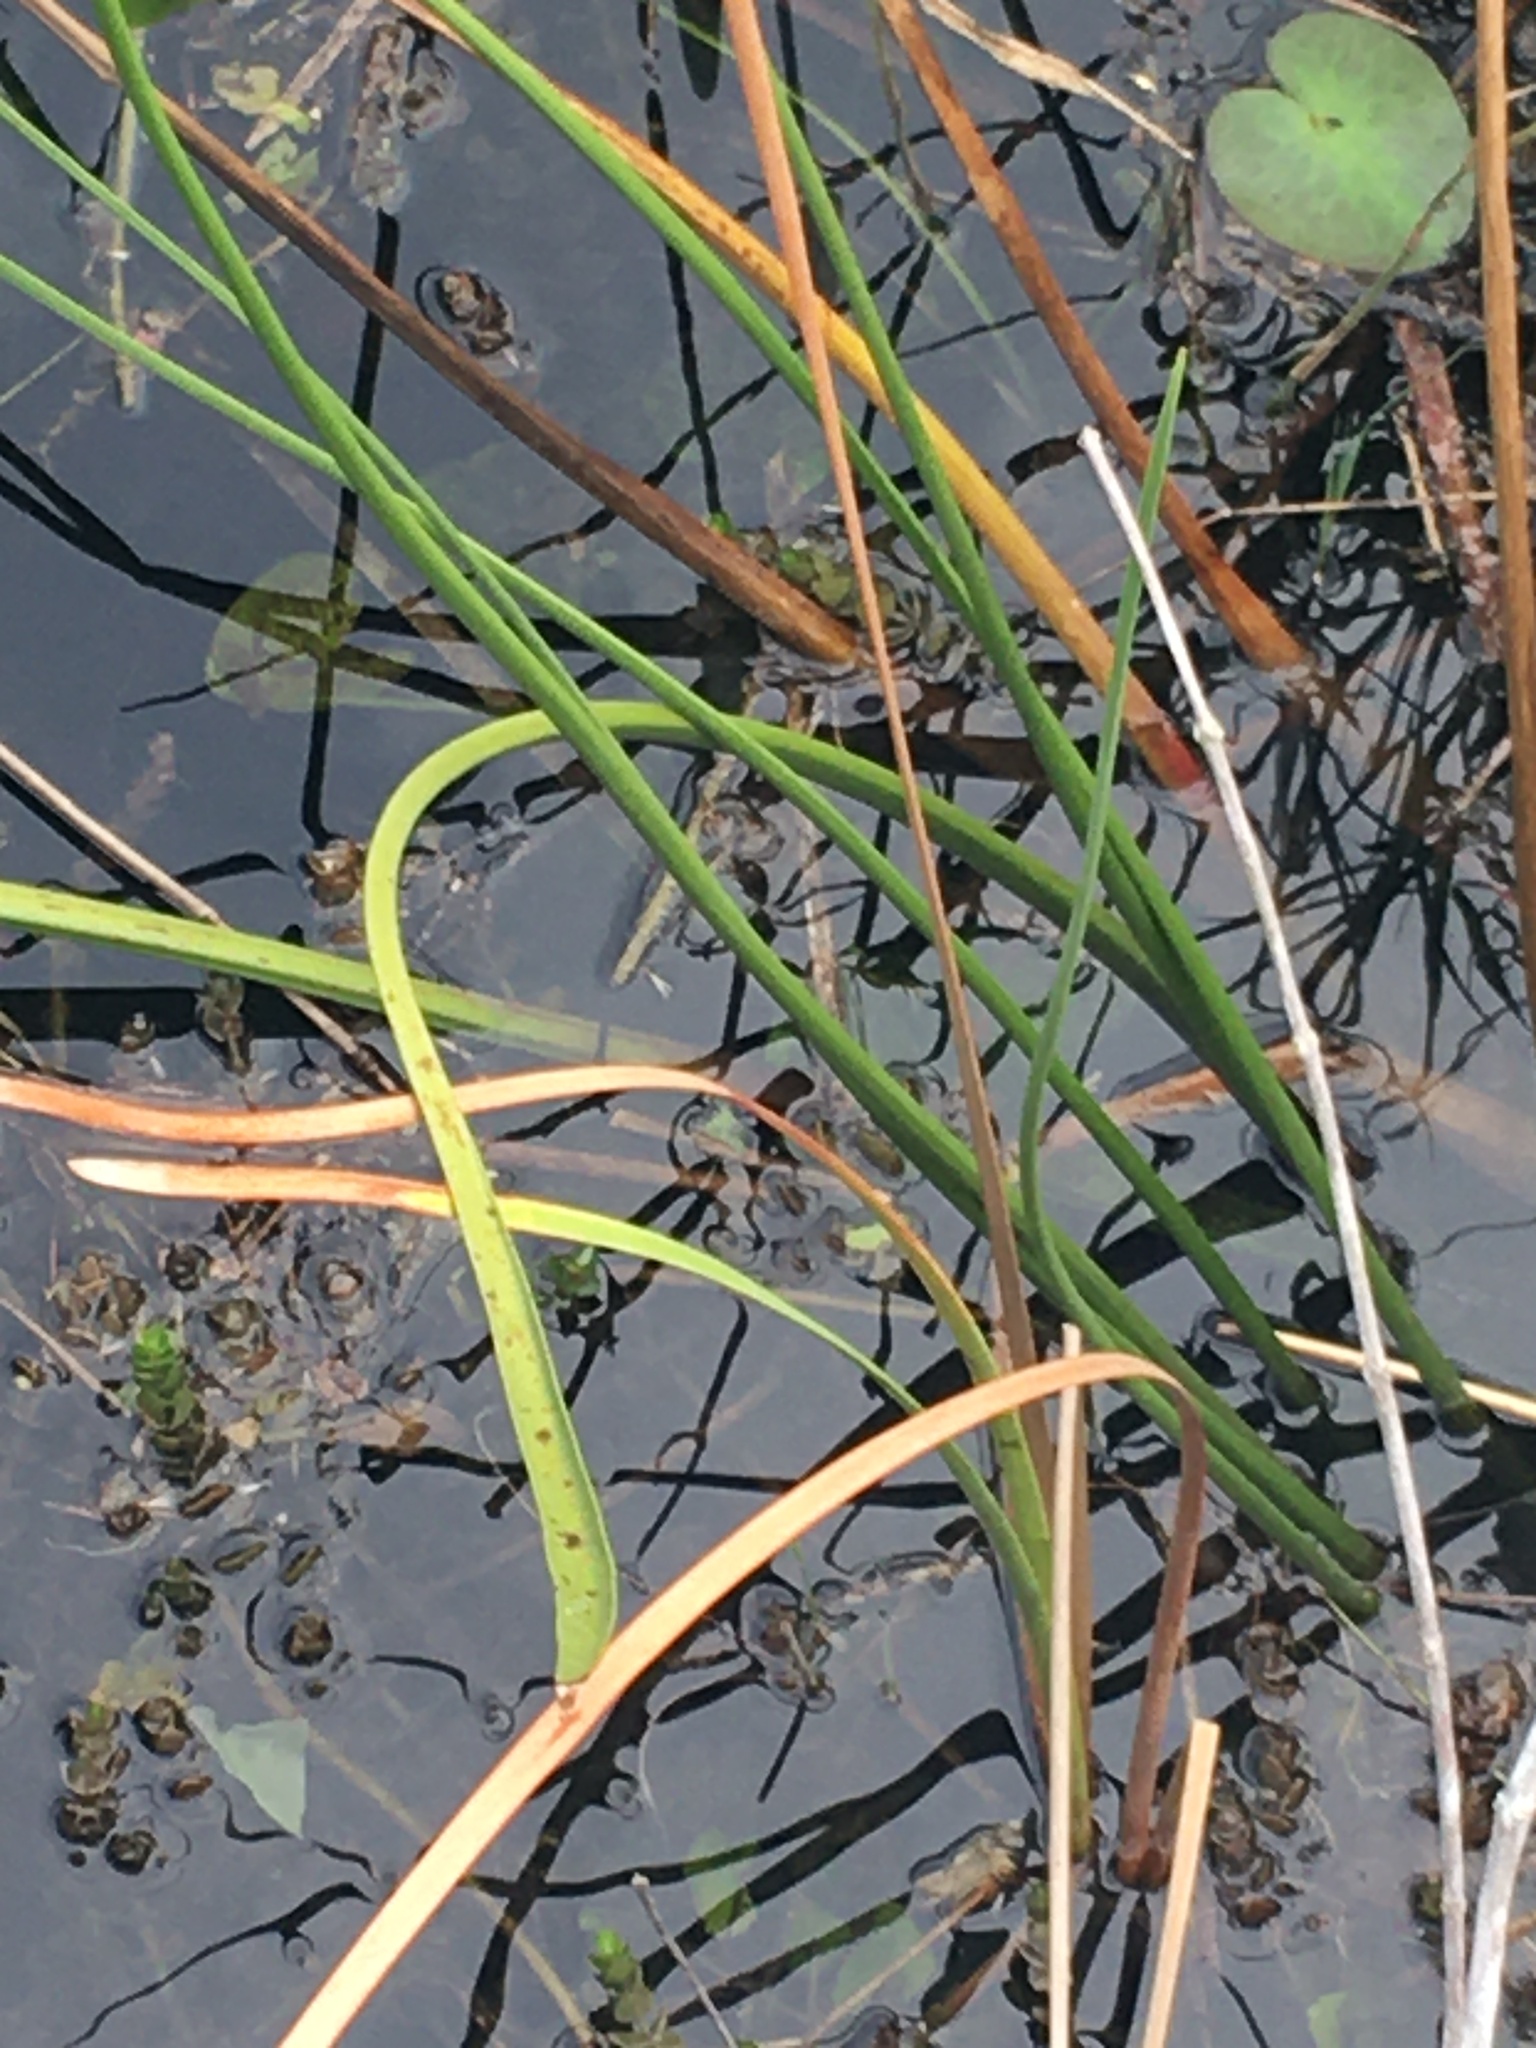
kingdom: Plantae
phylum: Tracheophyta
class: Liliopsida
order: Alismatales
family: Alismataceae
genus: Sagittaria
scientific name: Sagittaria lancifolia
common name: Lance-leaf arrowhead
